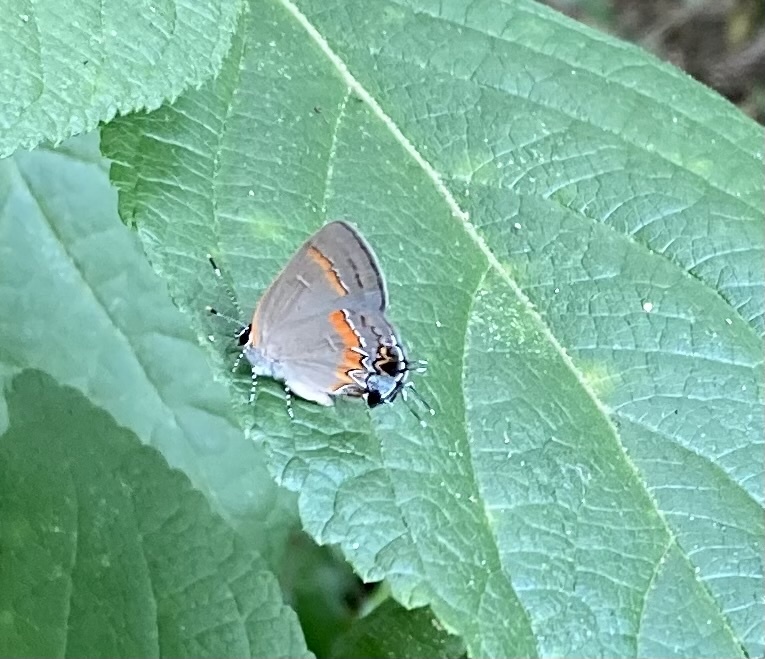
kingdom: Animalia
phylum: Arthropoda
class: Insecta
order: Lepidoptera
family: Lycaenidae
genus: Calycopis
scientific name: Calycopis cecrops
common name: Red-banded hairstreak
